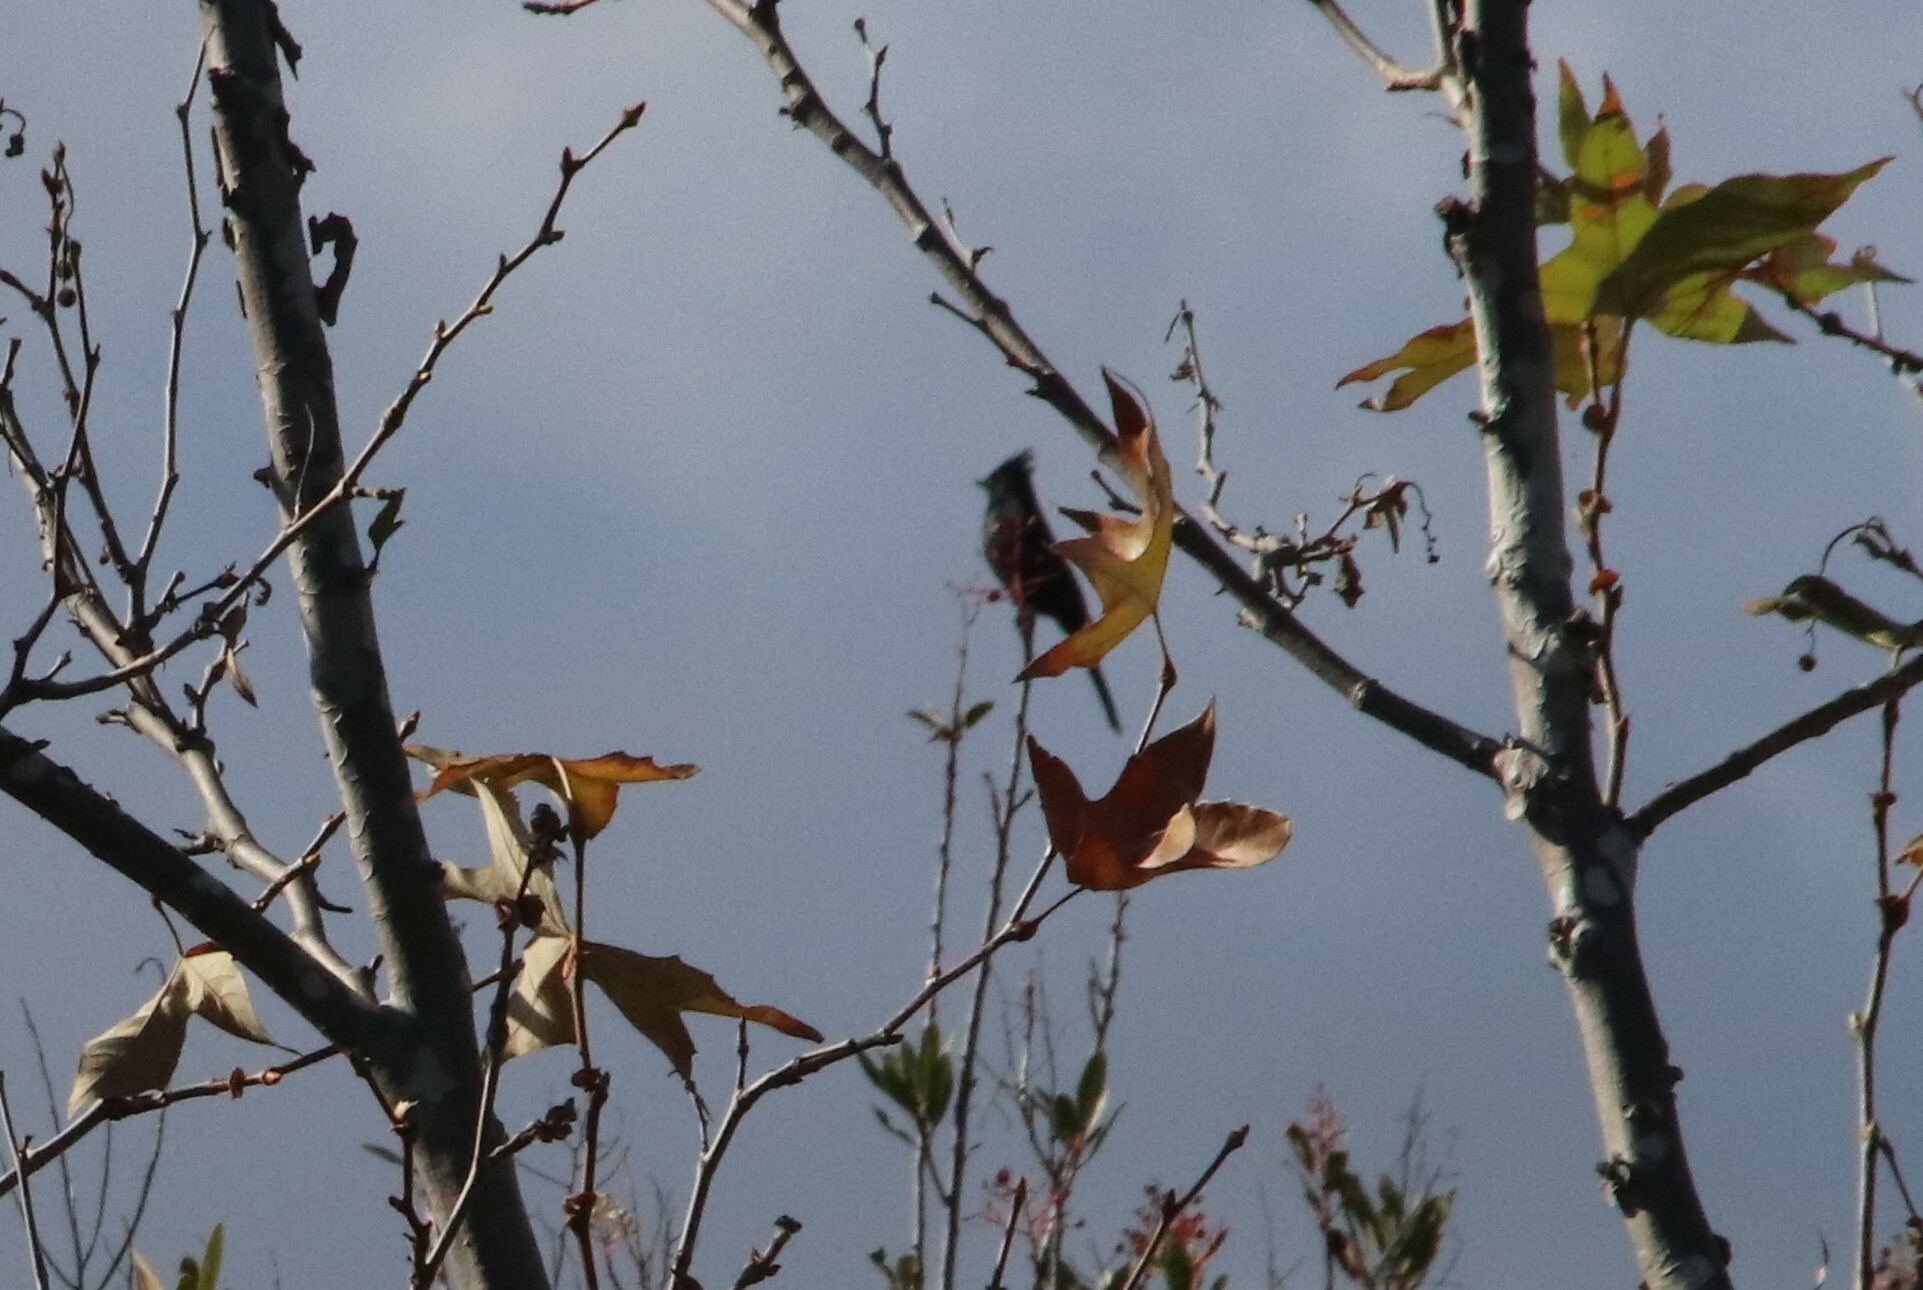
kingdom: Animalia
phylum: Chordata
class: Aves
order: Passeriformes
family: Ptilogonatidae
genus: Phainopepla
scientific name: Phainopepla nitens
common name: Phainopepla
